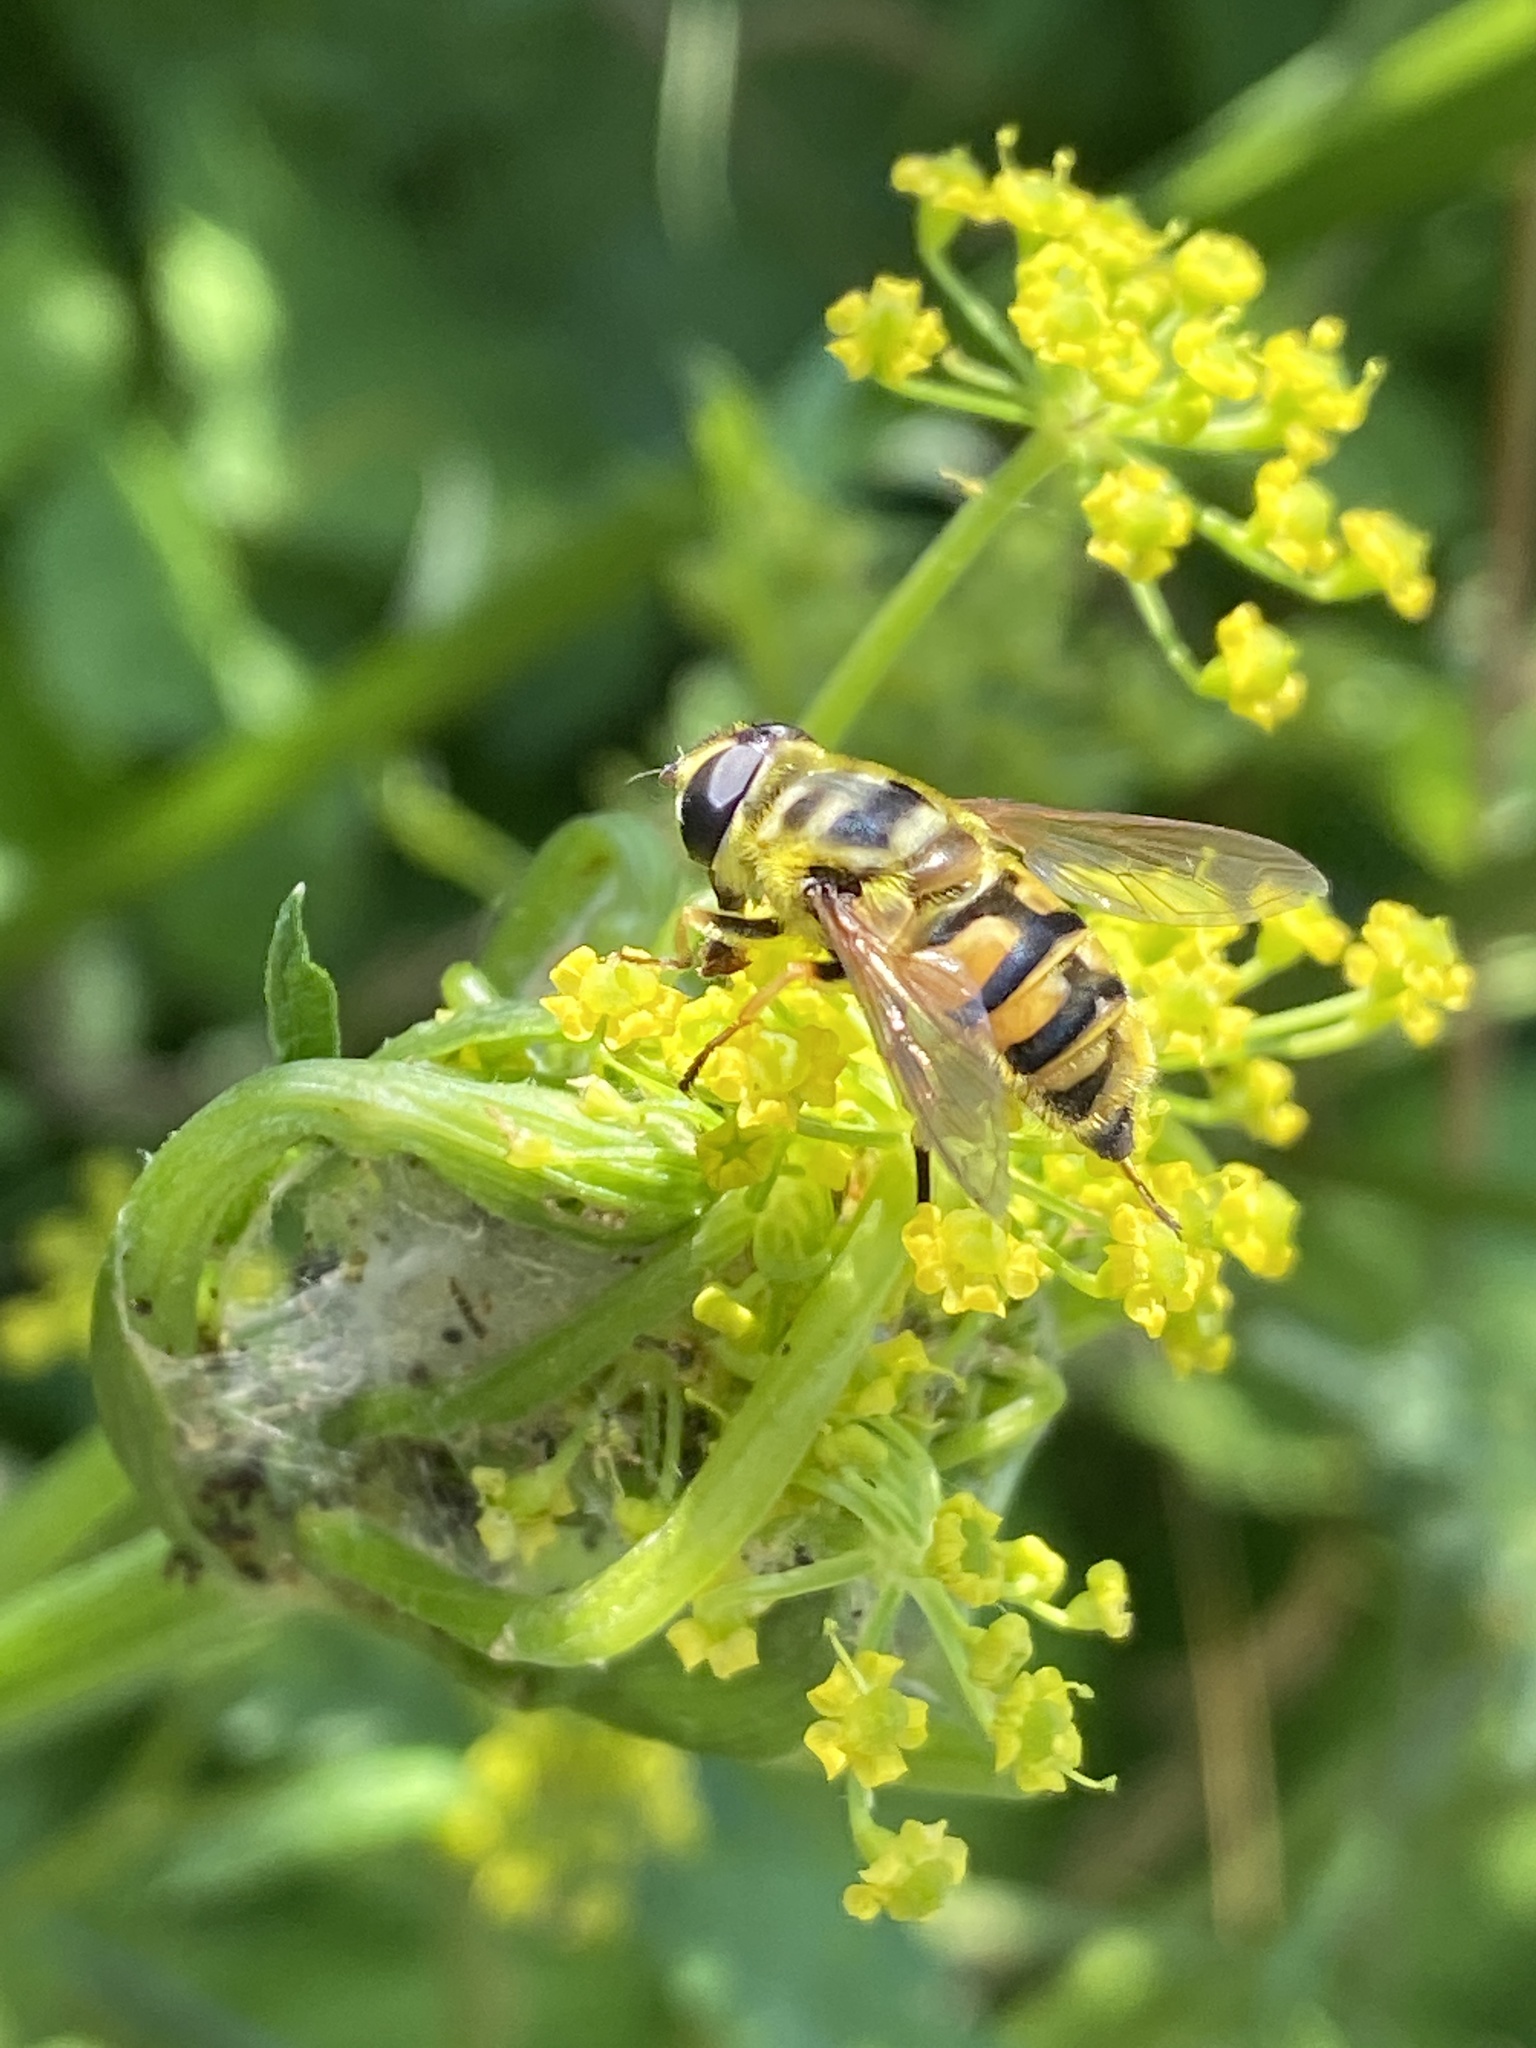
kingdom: Animalia
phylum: Arthropoda
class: Insecta
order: Diptera
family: Syrphidae
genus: Myathropa
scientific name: Myathropa florea
